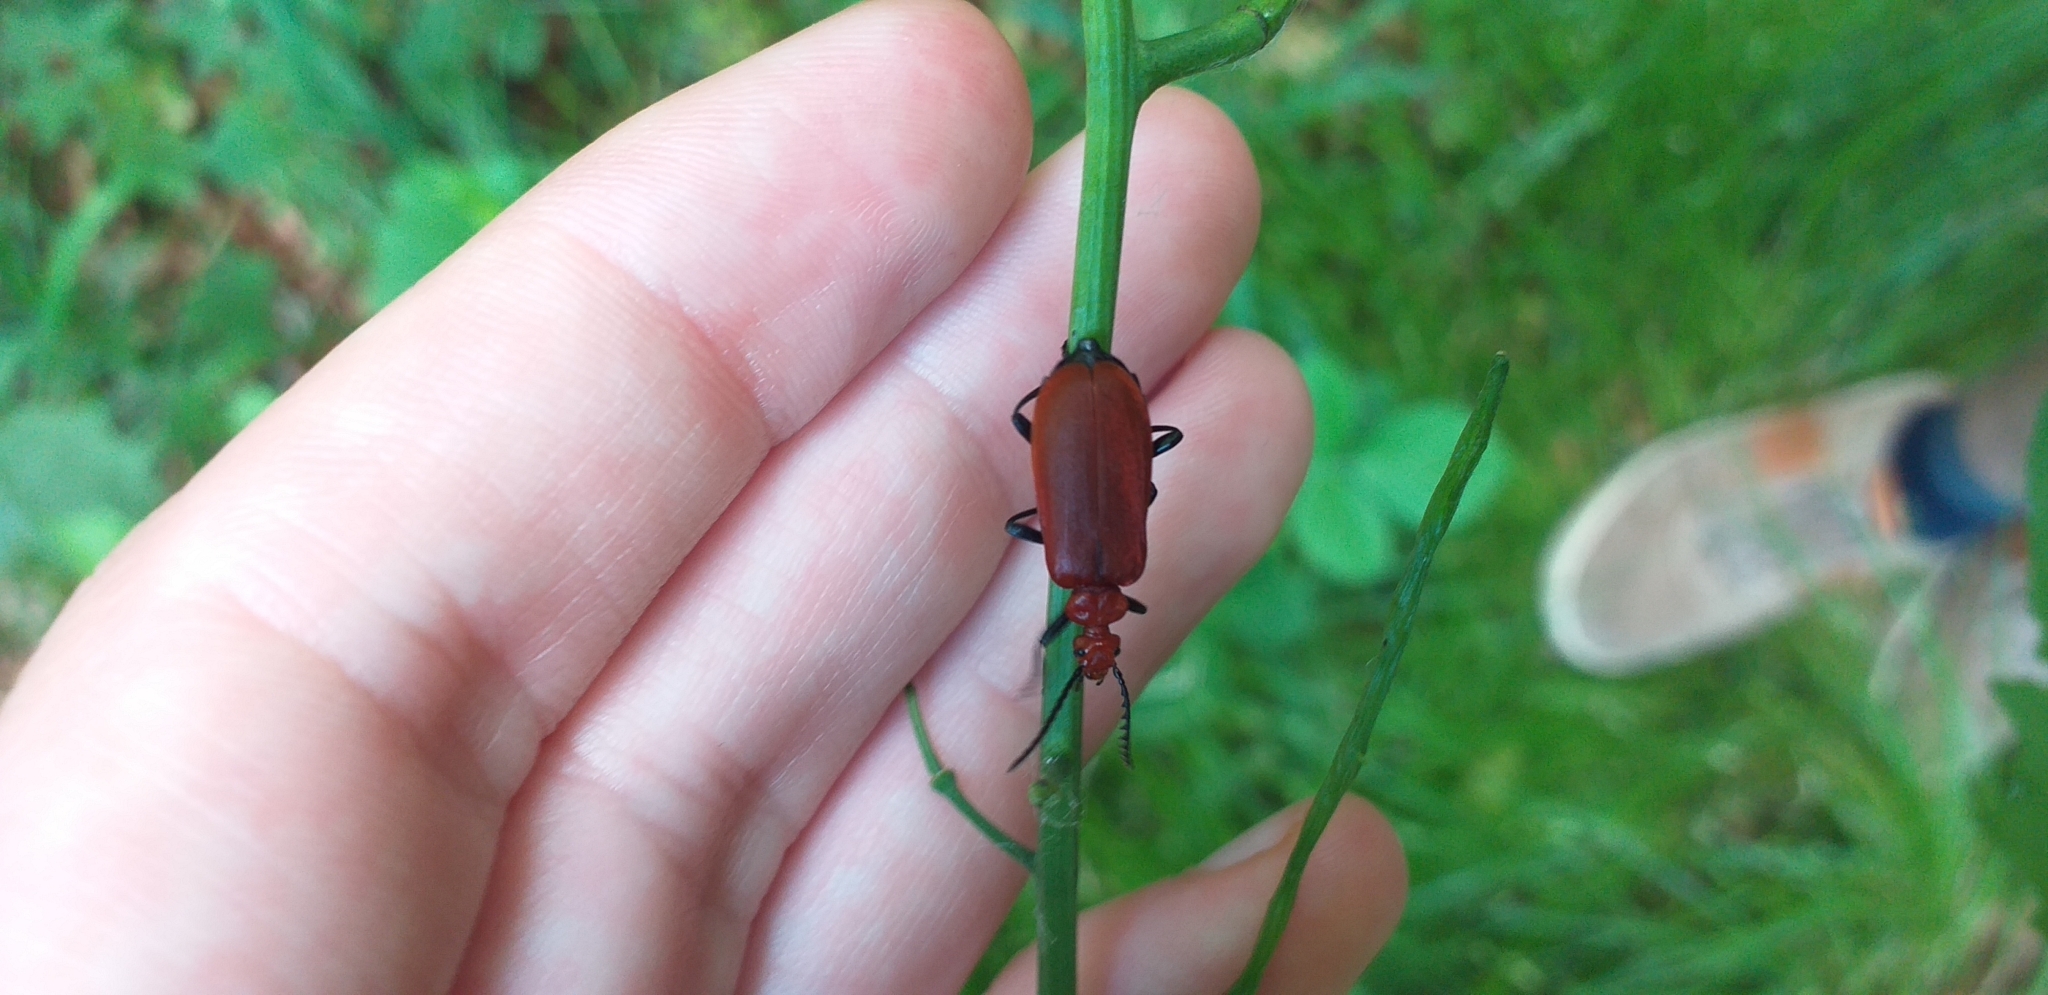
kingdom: Animalia
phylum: Arthropoda
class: Insecta
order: Coleoptera
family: Pyrochroidae
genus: Pyrochroa
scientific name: Pyrochroa serraticornis
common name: Red-headed cardinal beetle
